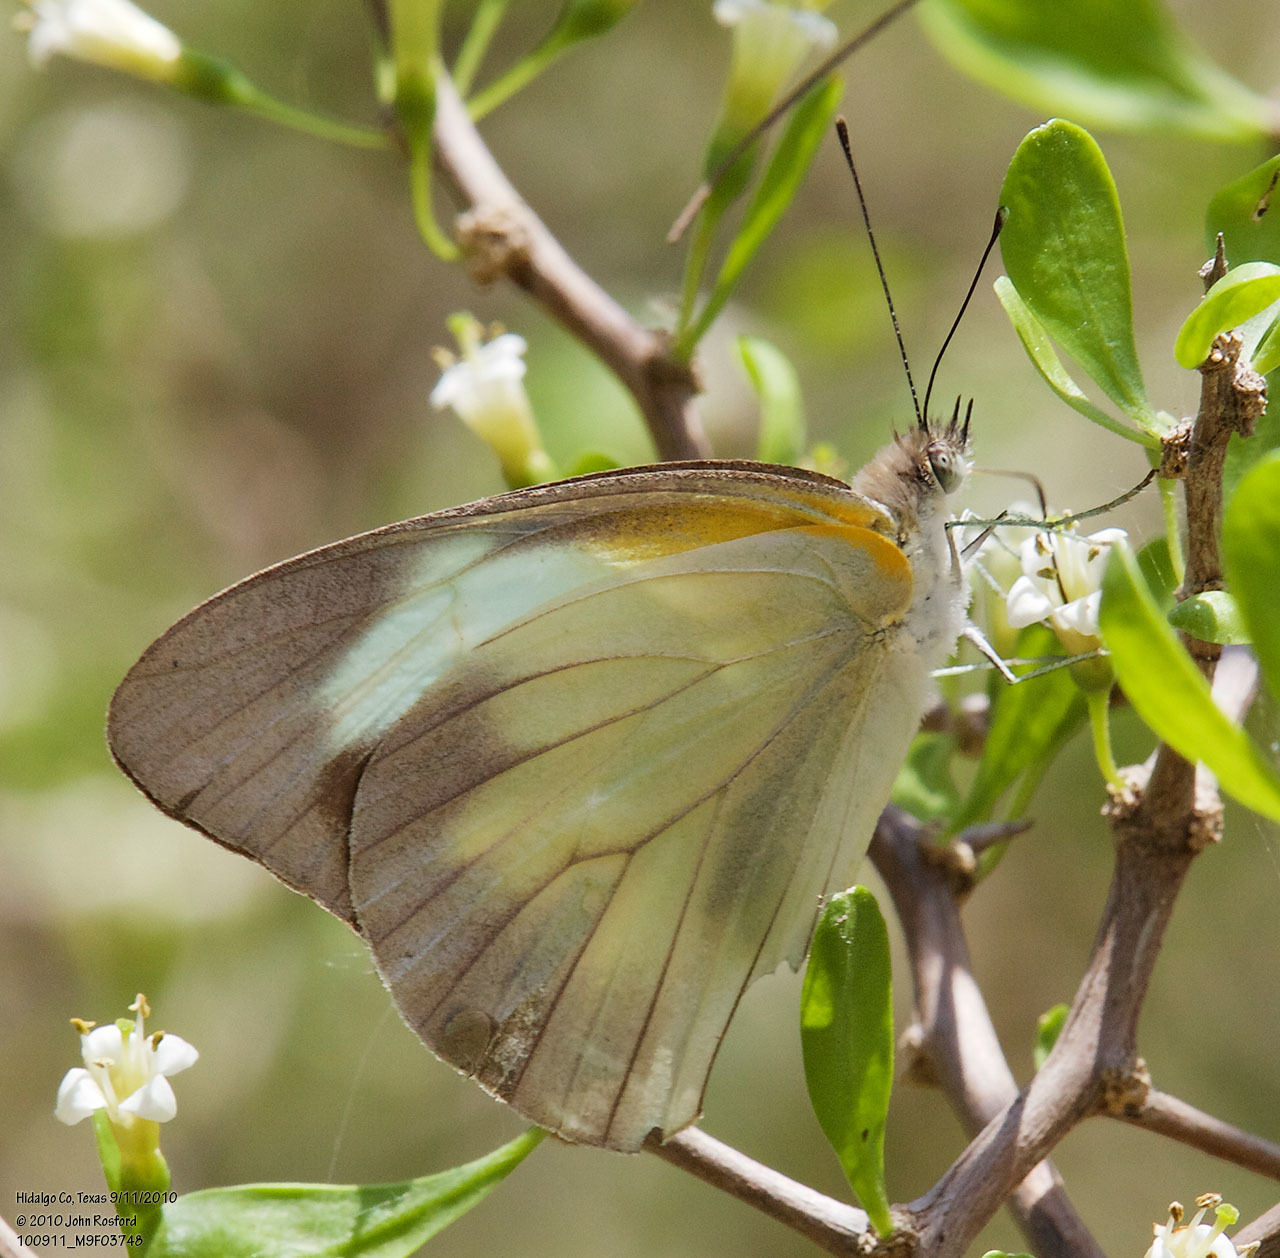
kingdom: Animalia
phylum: Arthropoda
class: Insecta
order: Lepidoptera
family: Pieridae
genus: Glutophrissa
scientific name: Glutophrissa drusilla
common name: Florida white
